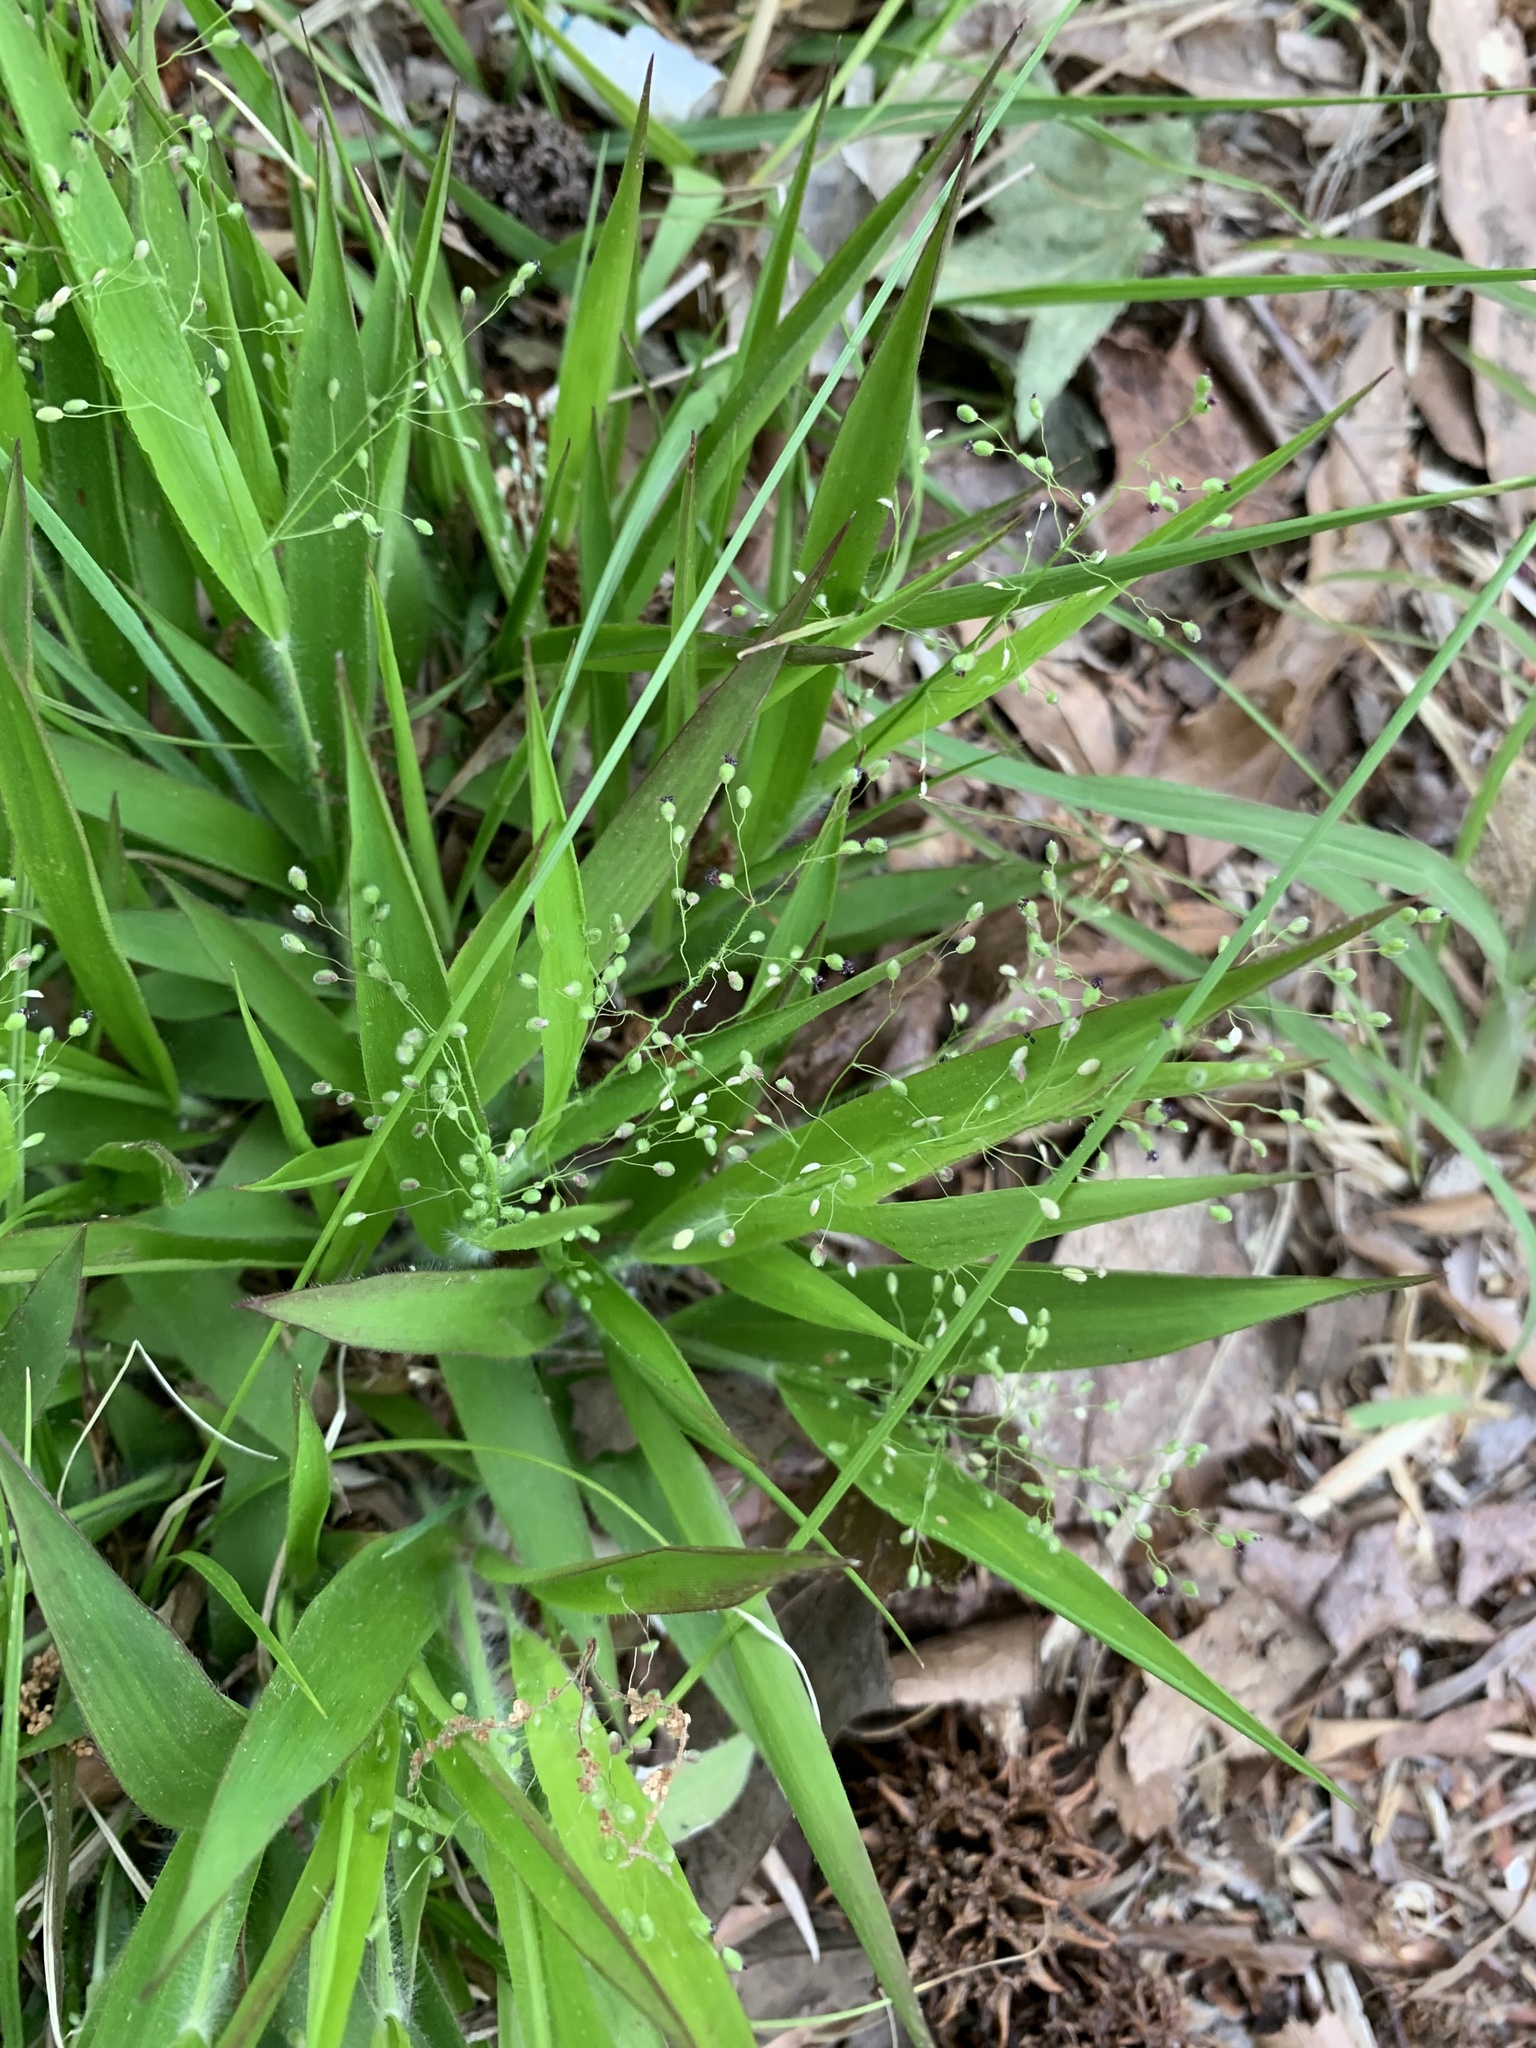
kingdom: Plantae
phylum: Tracheophyta
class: Liliopsida
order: Poales
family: Poaceae
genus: Dichanthelium
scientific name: Dichanthelium laxiflorum
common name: Soft-tuft panic grass
